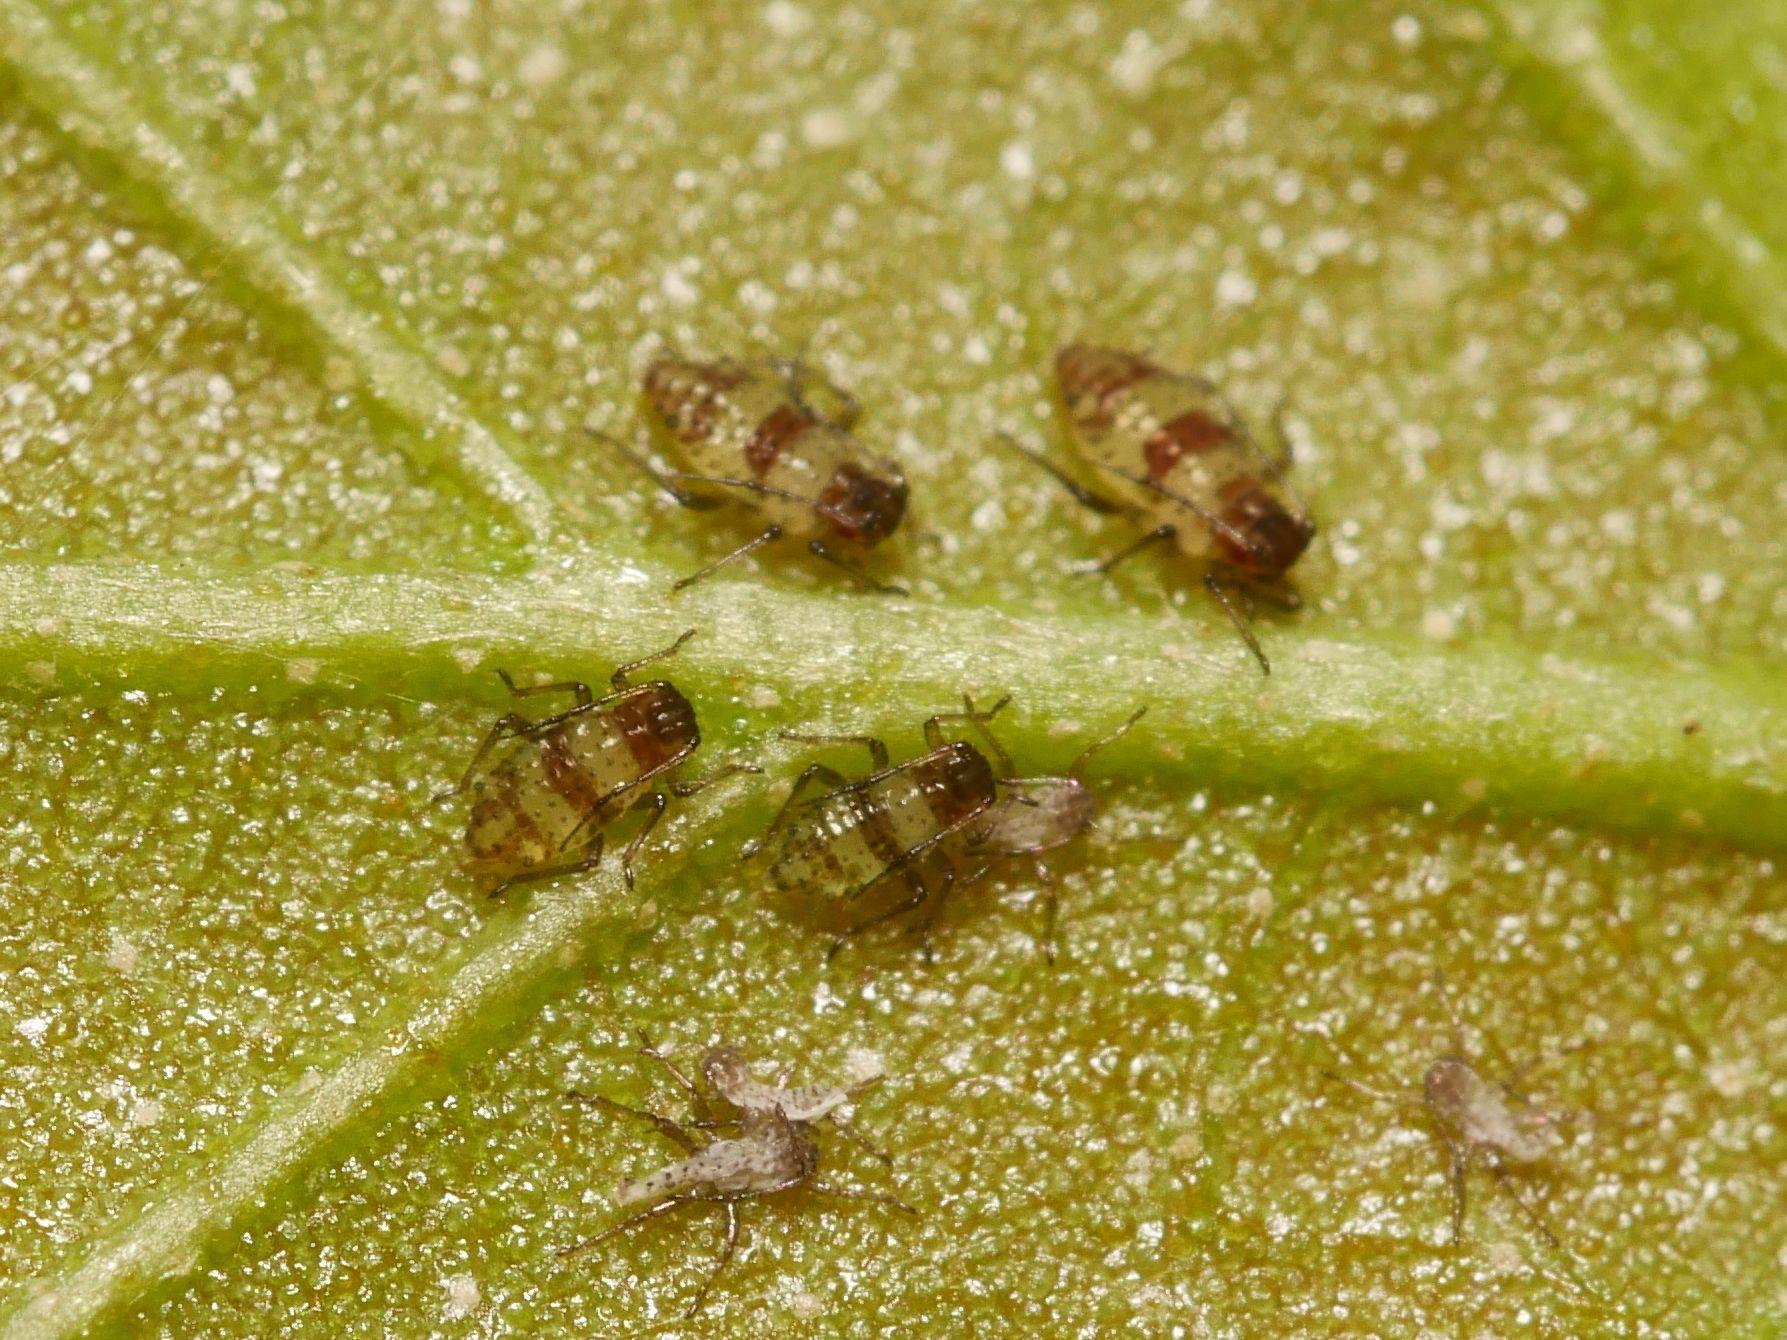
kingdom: Animalia
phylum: Arthropoda
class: Insecta
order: Hemiptera
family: Aphididae
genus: Callipterinella
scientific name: Callipterinella tuberculata
